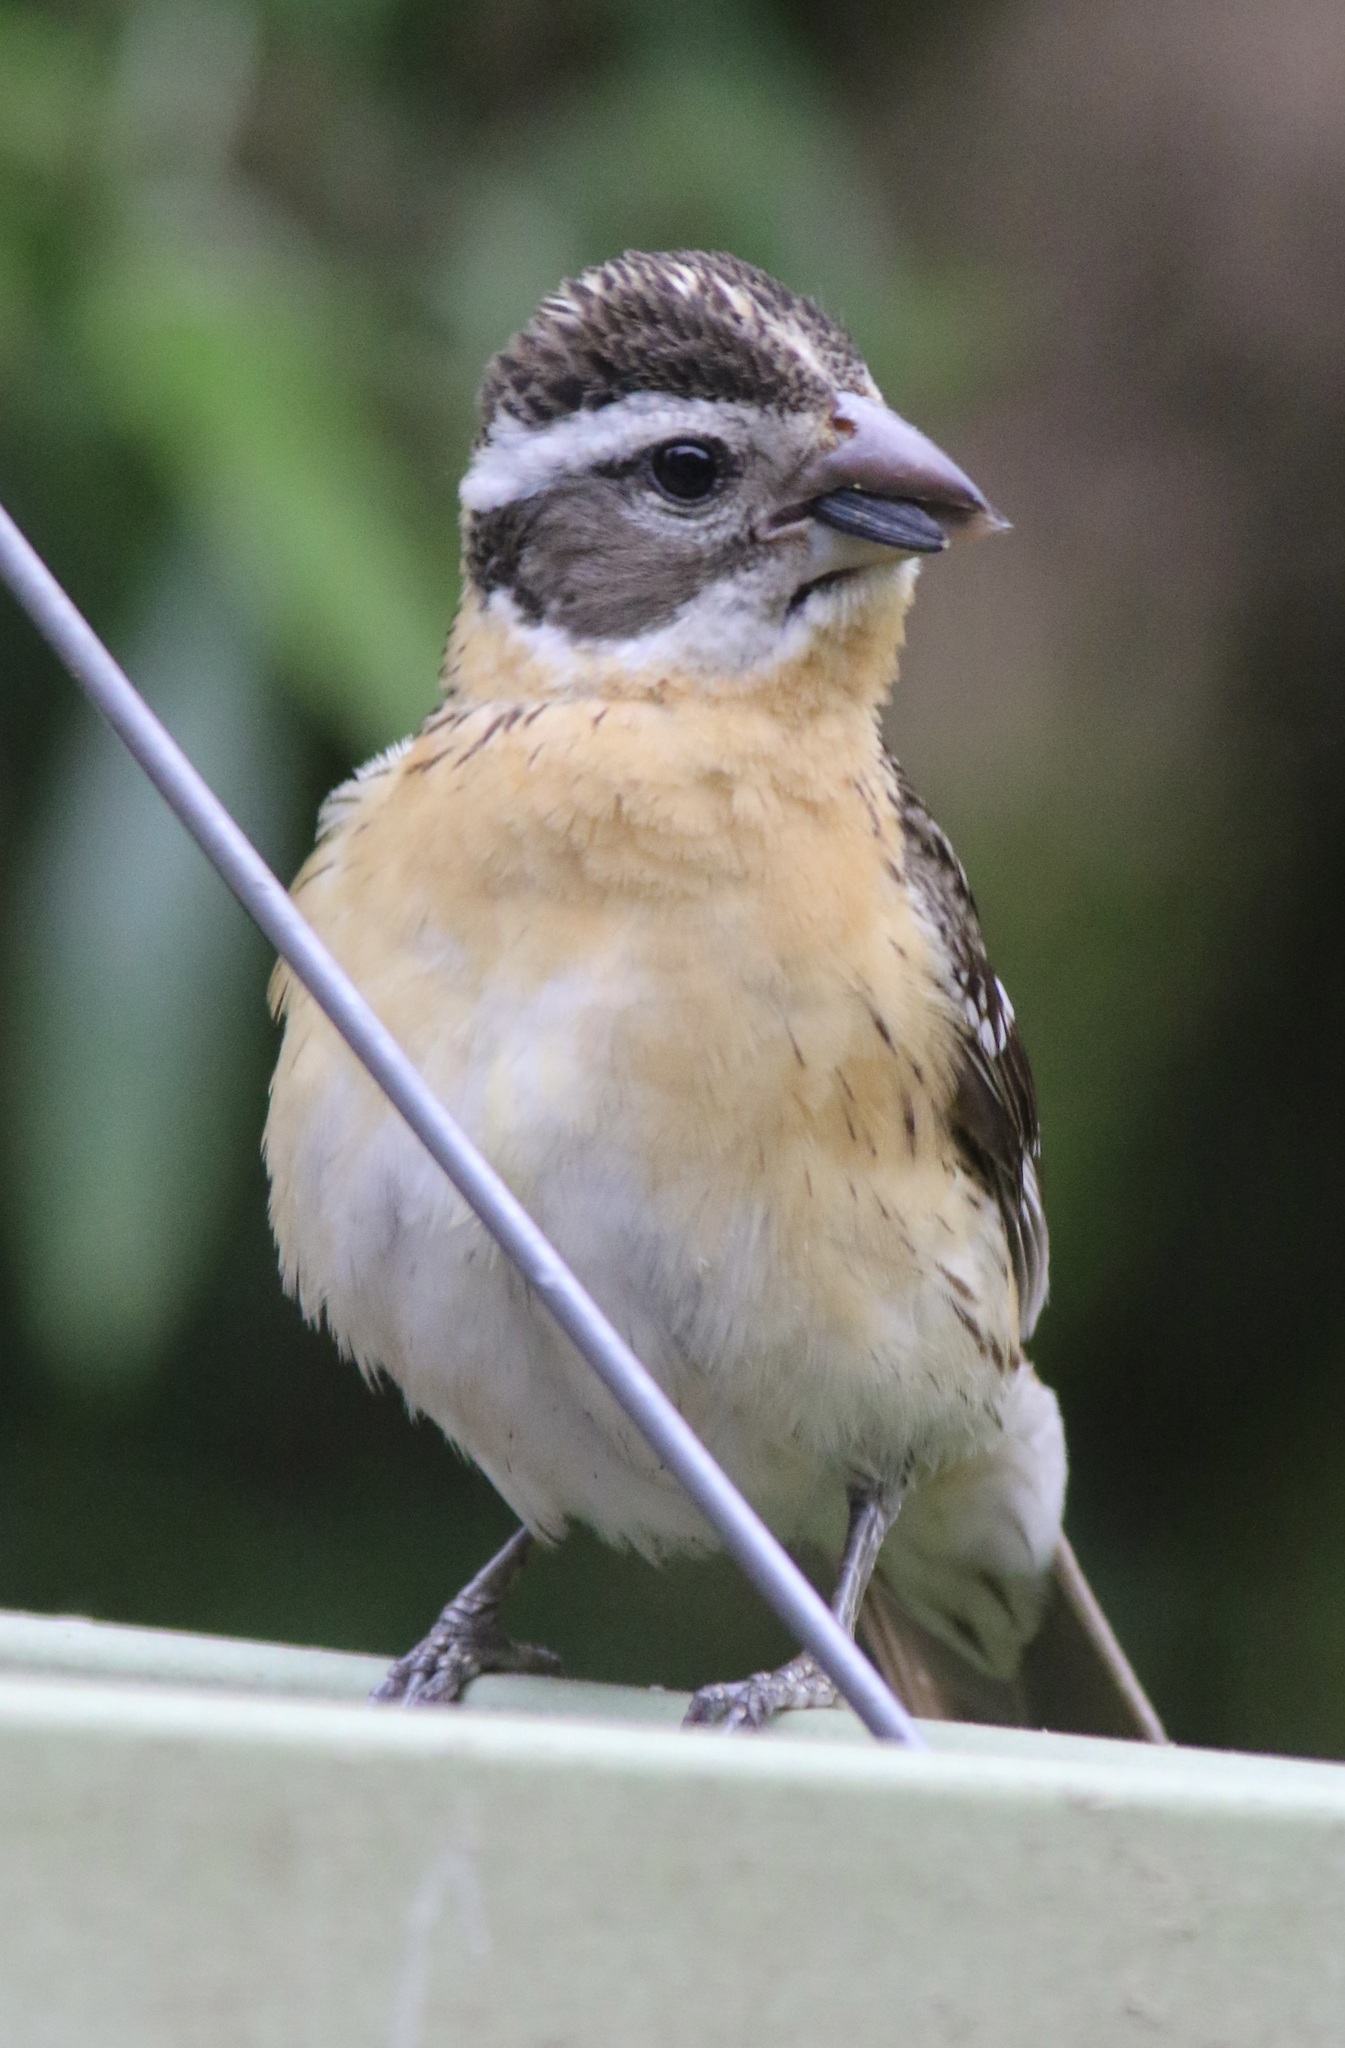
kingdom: Animalia
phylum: Chordata
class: Aves
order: Passeriformes
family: Cardinalidae
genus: Pheucticus
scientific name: Pheucticus melanocephalus
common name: Black-headed grosbeak
